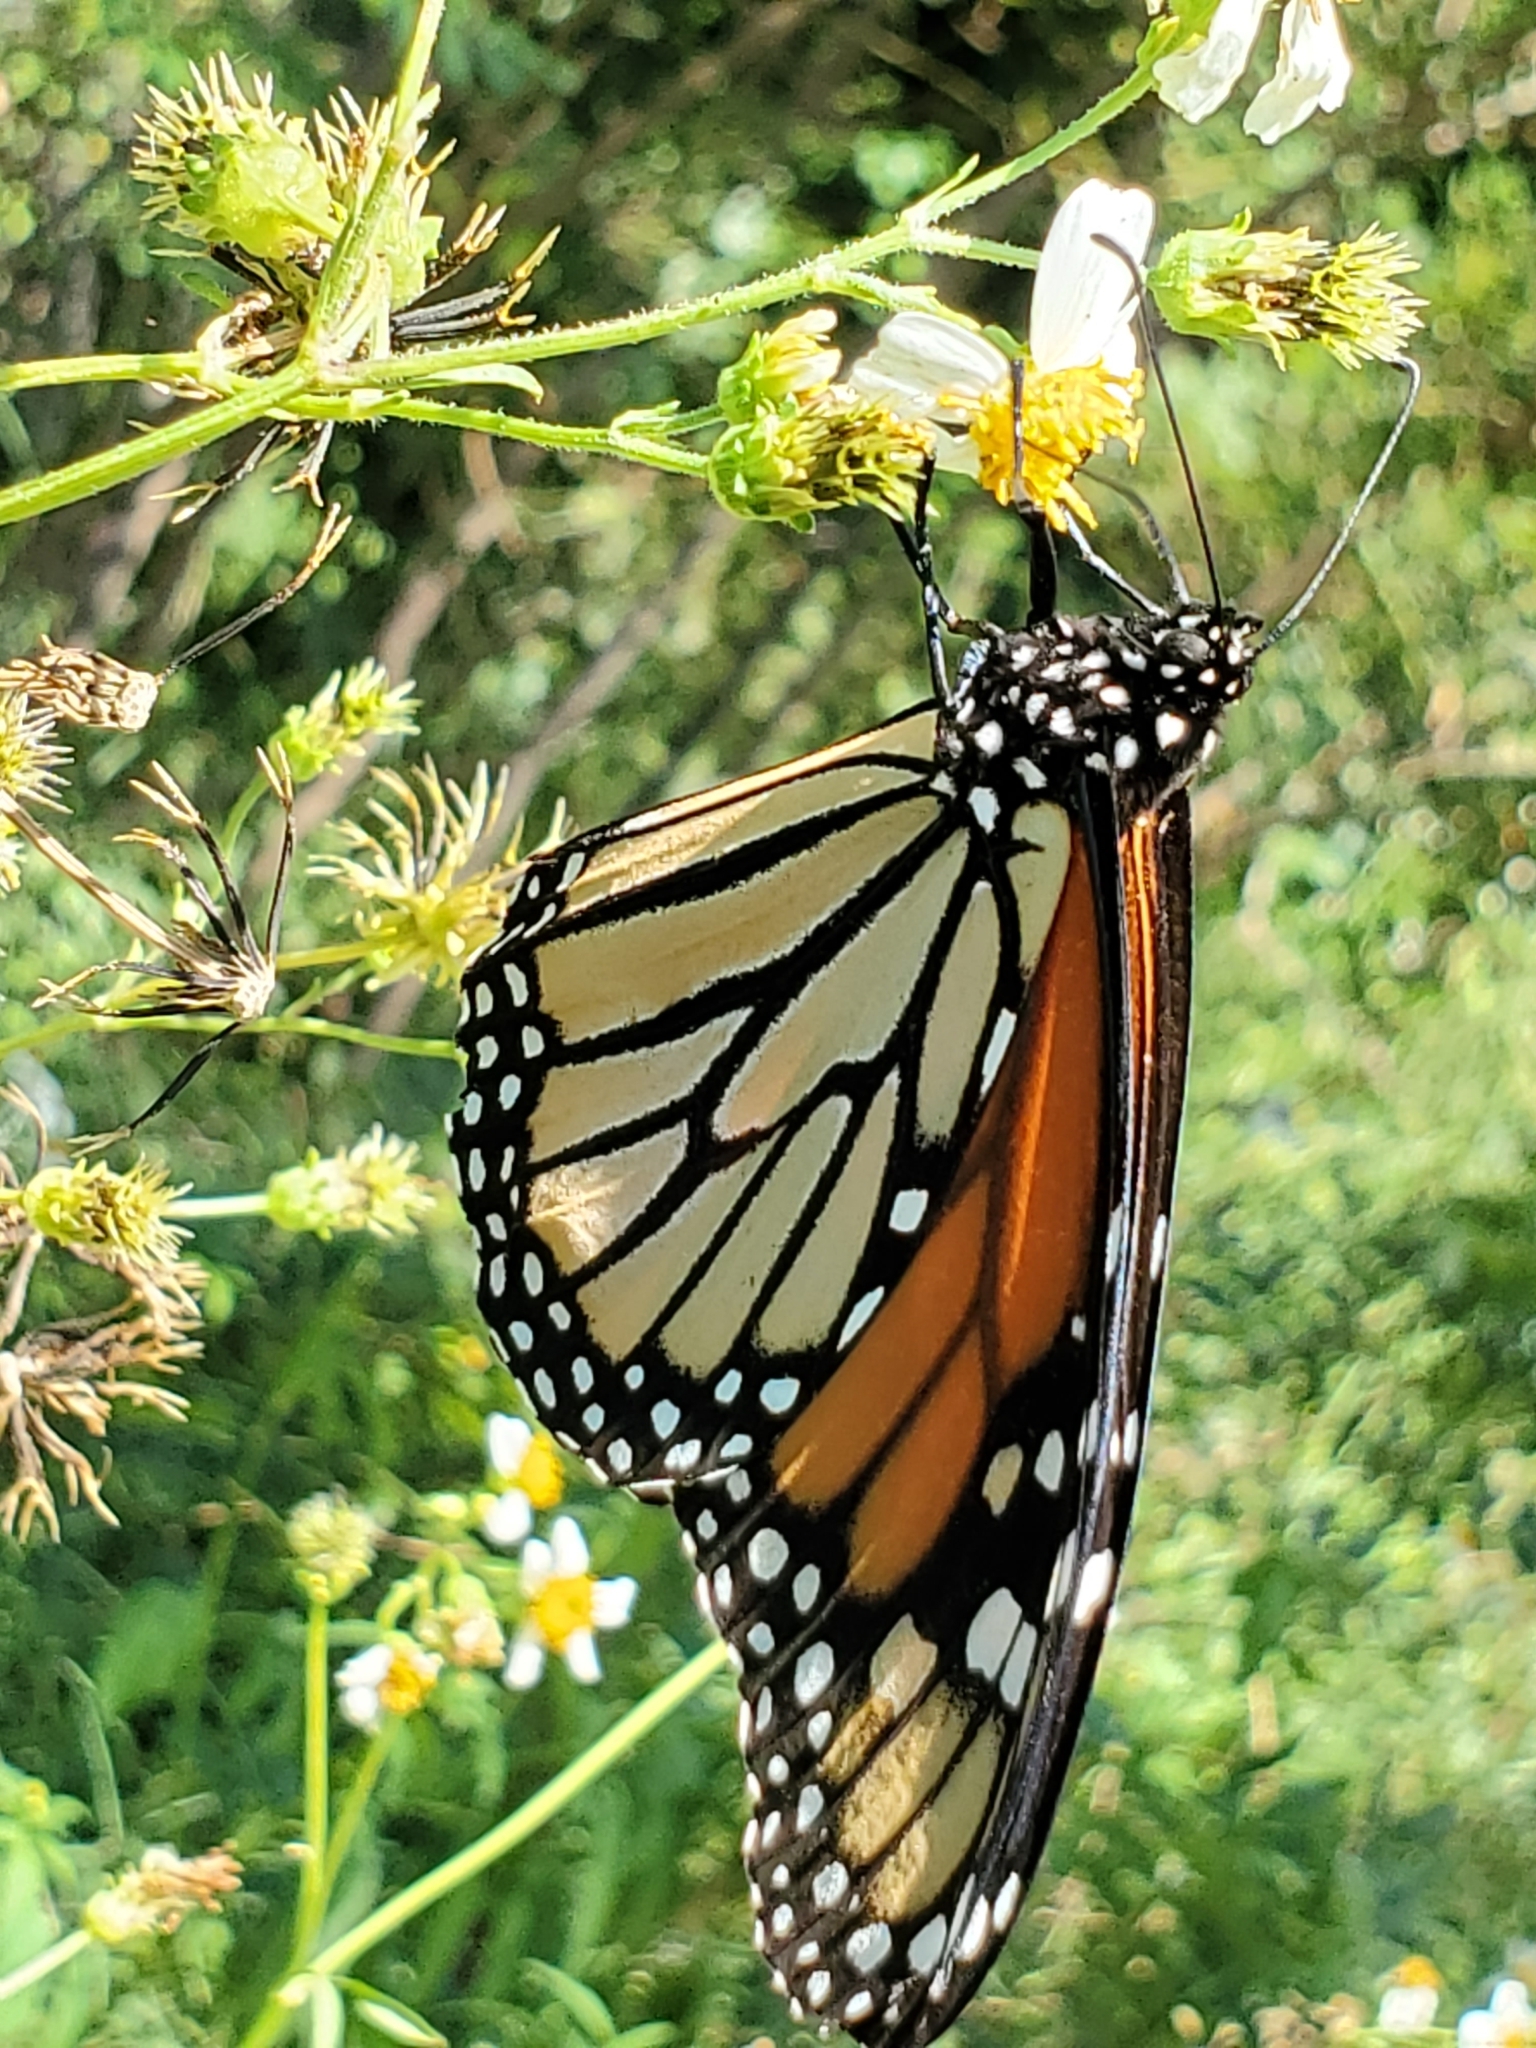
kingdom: Animalia
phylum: Arthropoda
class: Insecta
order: Lepidoptera
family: Nymphalidae
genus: Danaus
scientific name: Danaus plexippus
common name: Monarch
